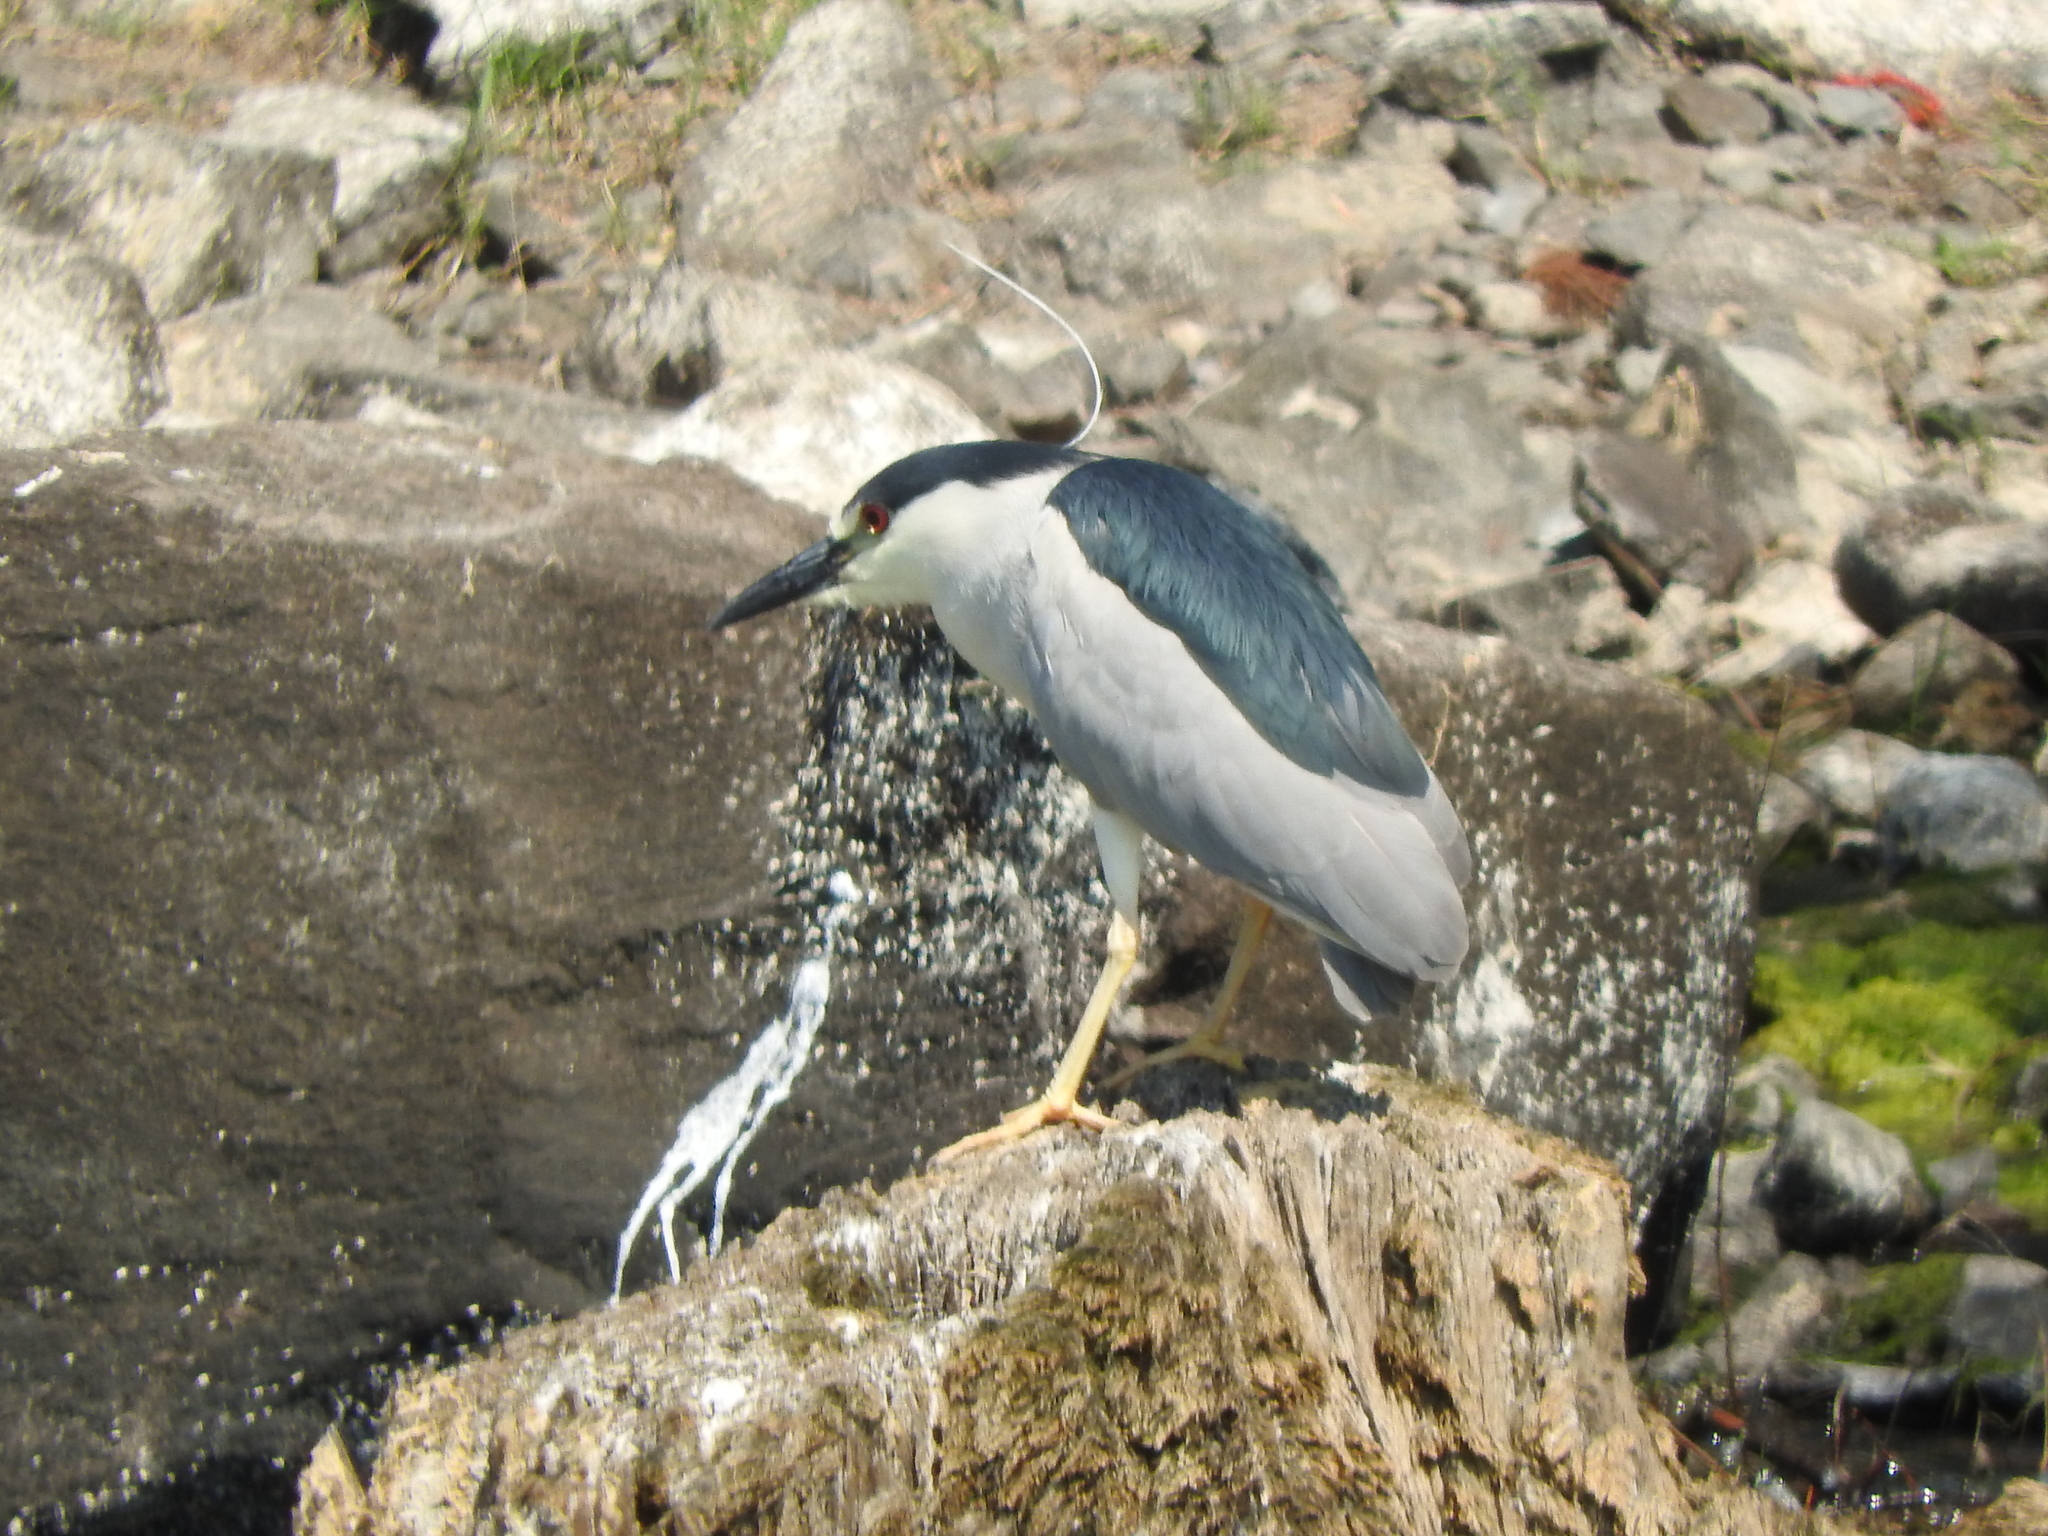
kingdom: Animalia
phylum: Chordata
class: Aves
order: Pelecaniformes
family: Ardeidae
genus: Nycticorax
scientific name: Nycticorax nycticorax
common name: Black-crowned night heron
